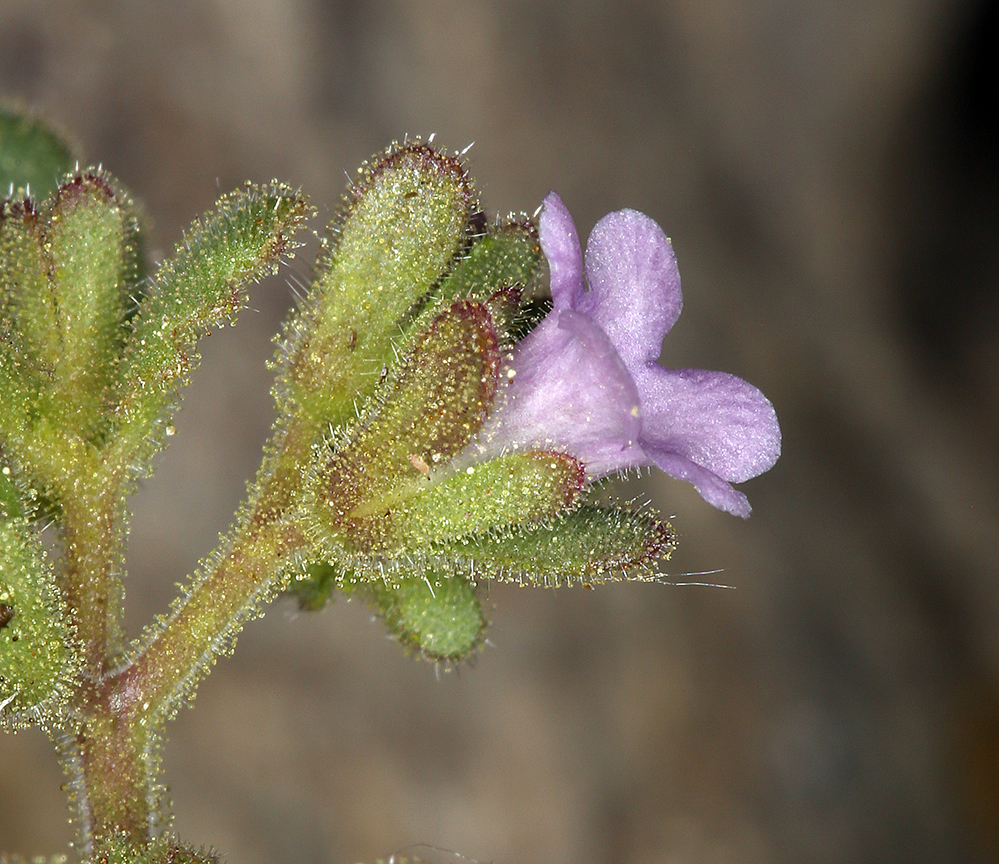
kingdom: Plantae
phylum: Tracheophyta
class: Magnoliopsida
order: Boraginales
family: Hydrophyllaceae
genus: Phacelia
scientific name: Phacelia peirsoniana
